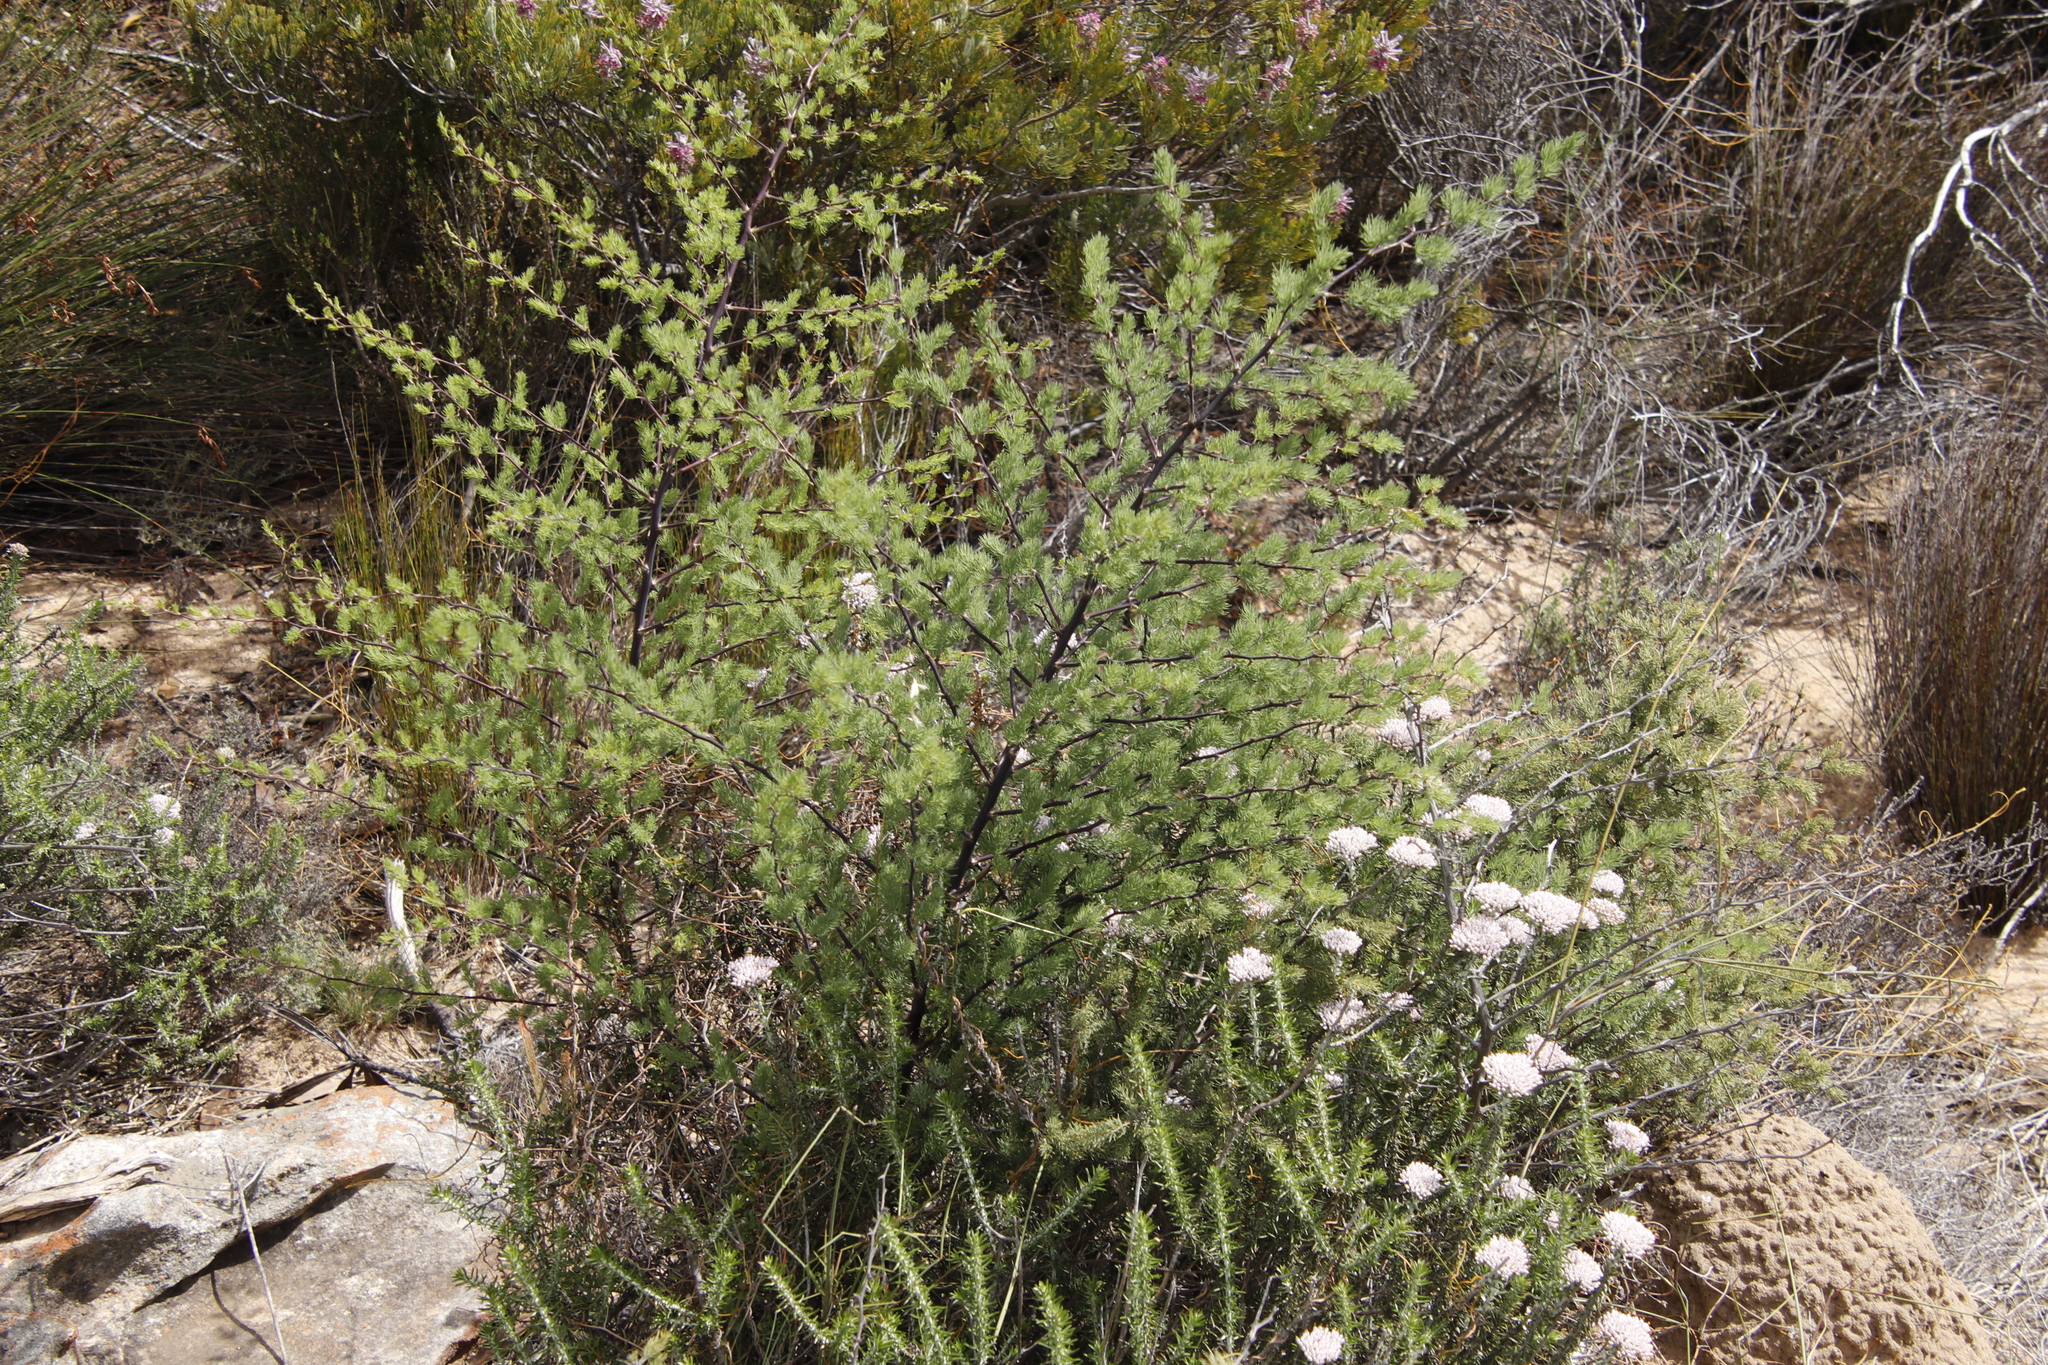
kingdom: Plantae
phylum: Tracheophyta
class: Liliopsida
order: Asparagales
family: Asparagaceae
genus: Asparagus
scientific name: Asparagus rubicundus
